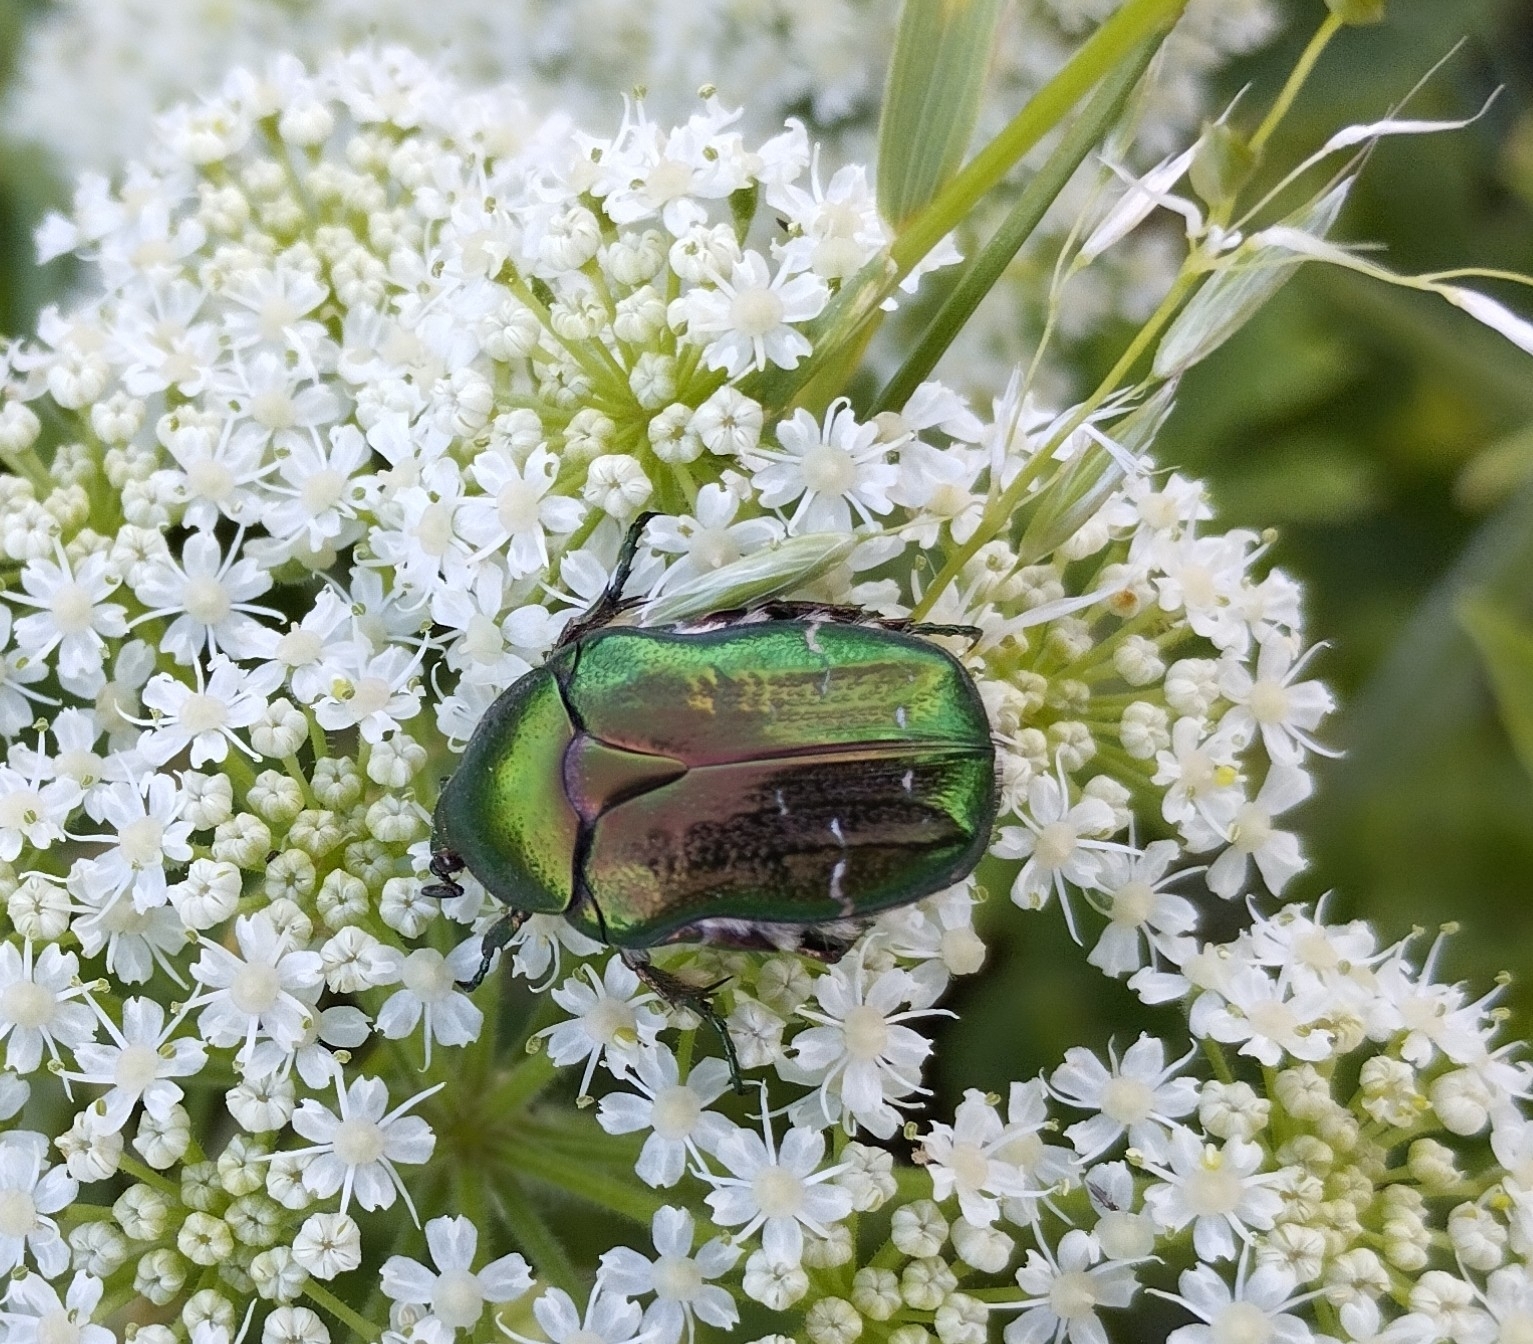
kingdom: Animalia
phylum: Arthropoda
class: Insecta
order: Coleoptera
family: Scarabaeidae
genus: Cetonia
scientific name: Cetonia aurata
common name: Rose chafer
